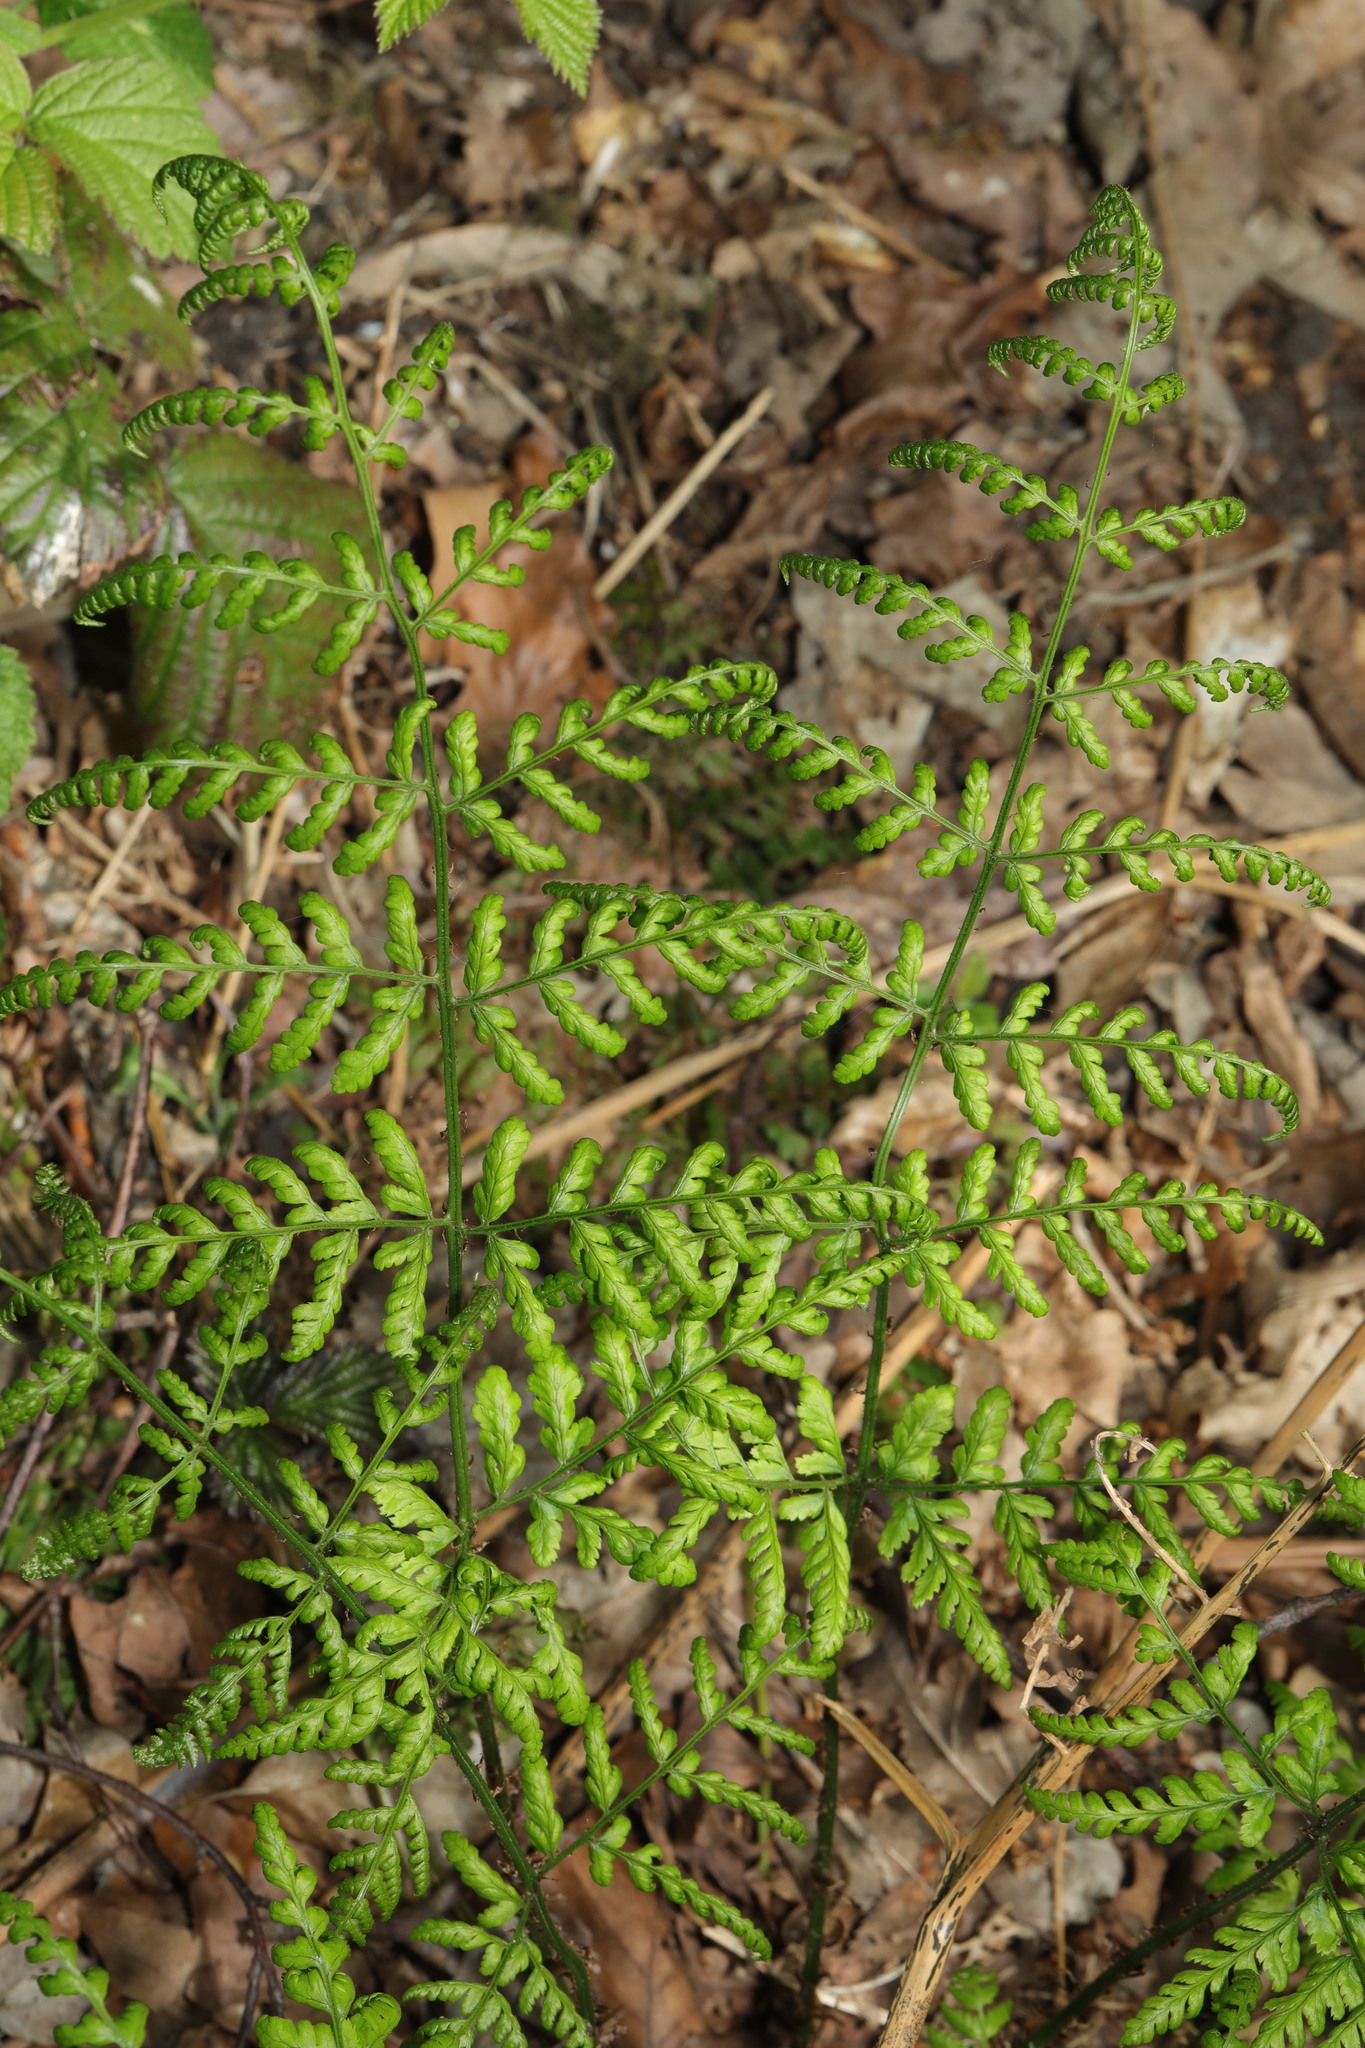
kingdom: Plantae
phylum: Tracheophyta
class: Polypodiopsida
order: Polypodiales
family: Dryopteridaceae
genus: Dryopteris
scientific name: Dryopteris dilatata
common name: Broad buckler-fern
